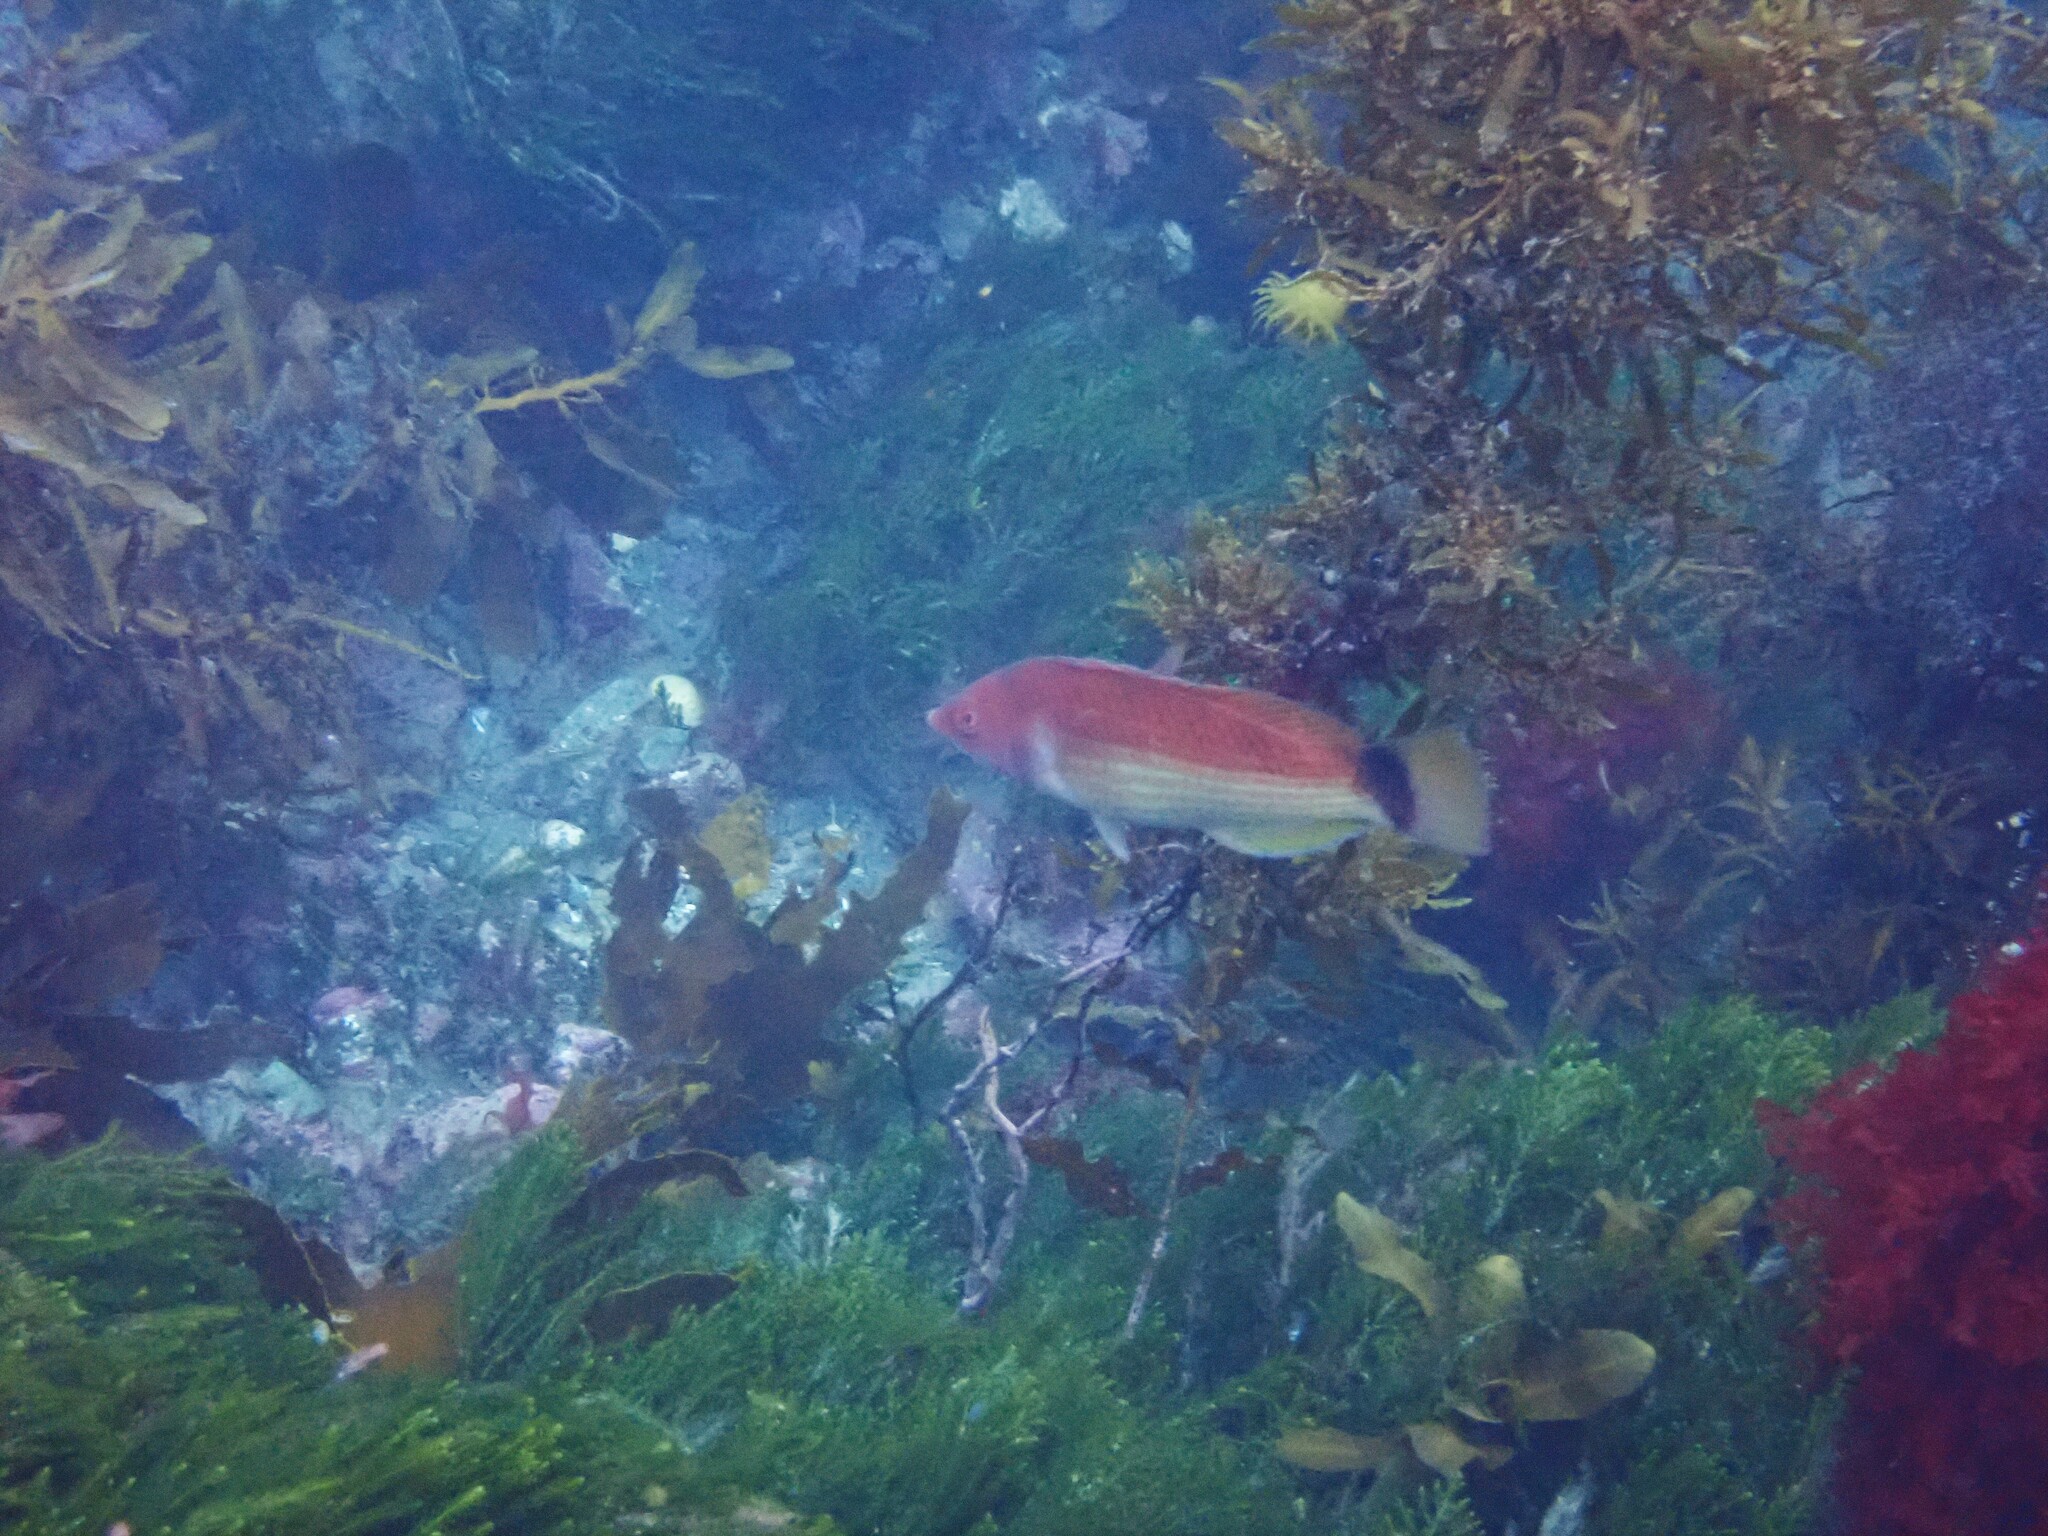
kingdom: Animalia
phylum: Chordata
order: Perciformes
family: Labridae
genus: Pseudolabrus
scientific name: Pseudolabrus miles
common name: Scarlet wrasse
